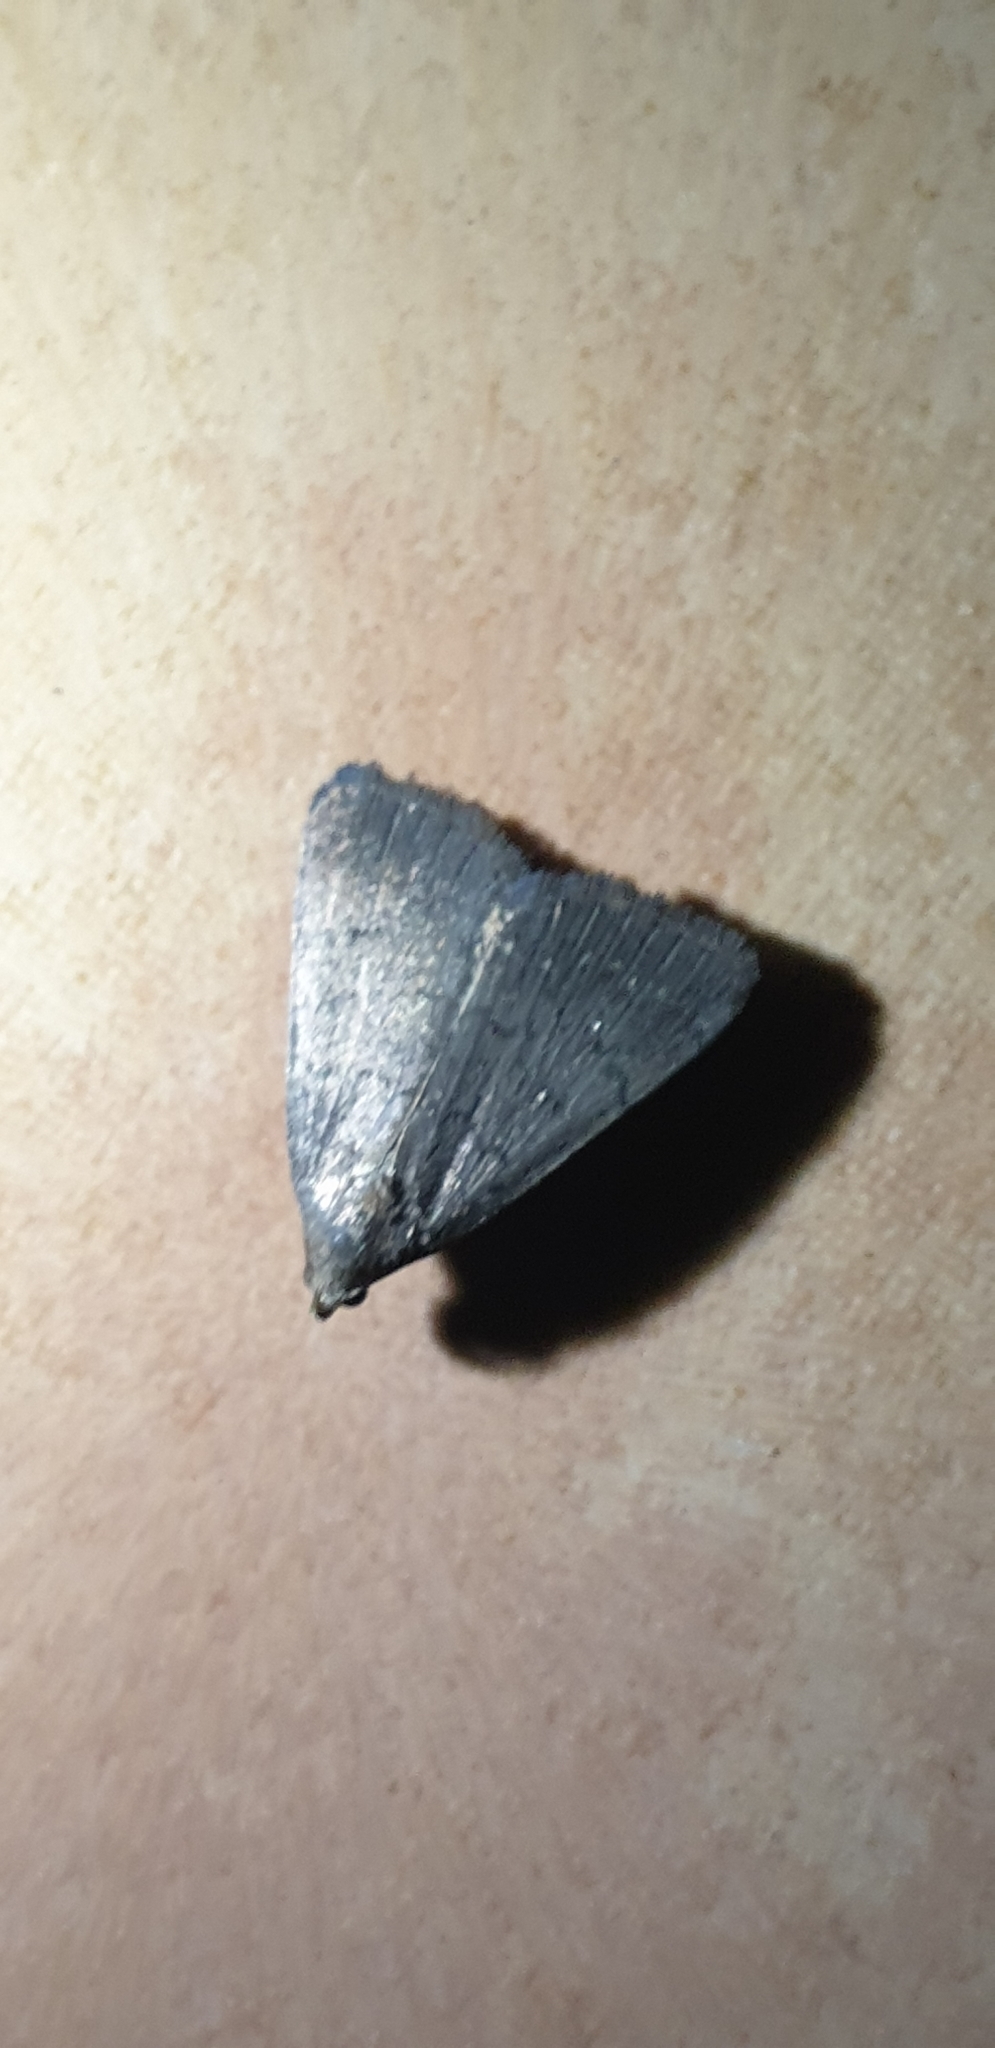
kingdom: Animalia
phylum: Arthropoda
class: Insecta
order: Lepidoptera
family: Erebidae
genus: Simplicia
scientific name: Simplicia cornicalis
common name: Tiki hut litter moth
